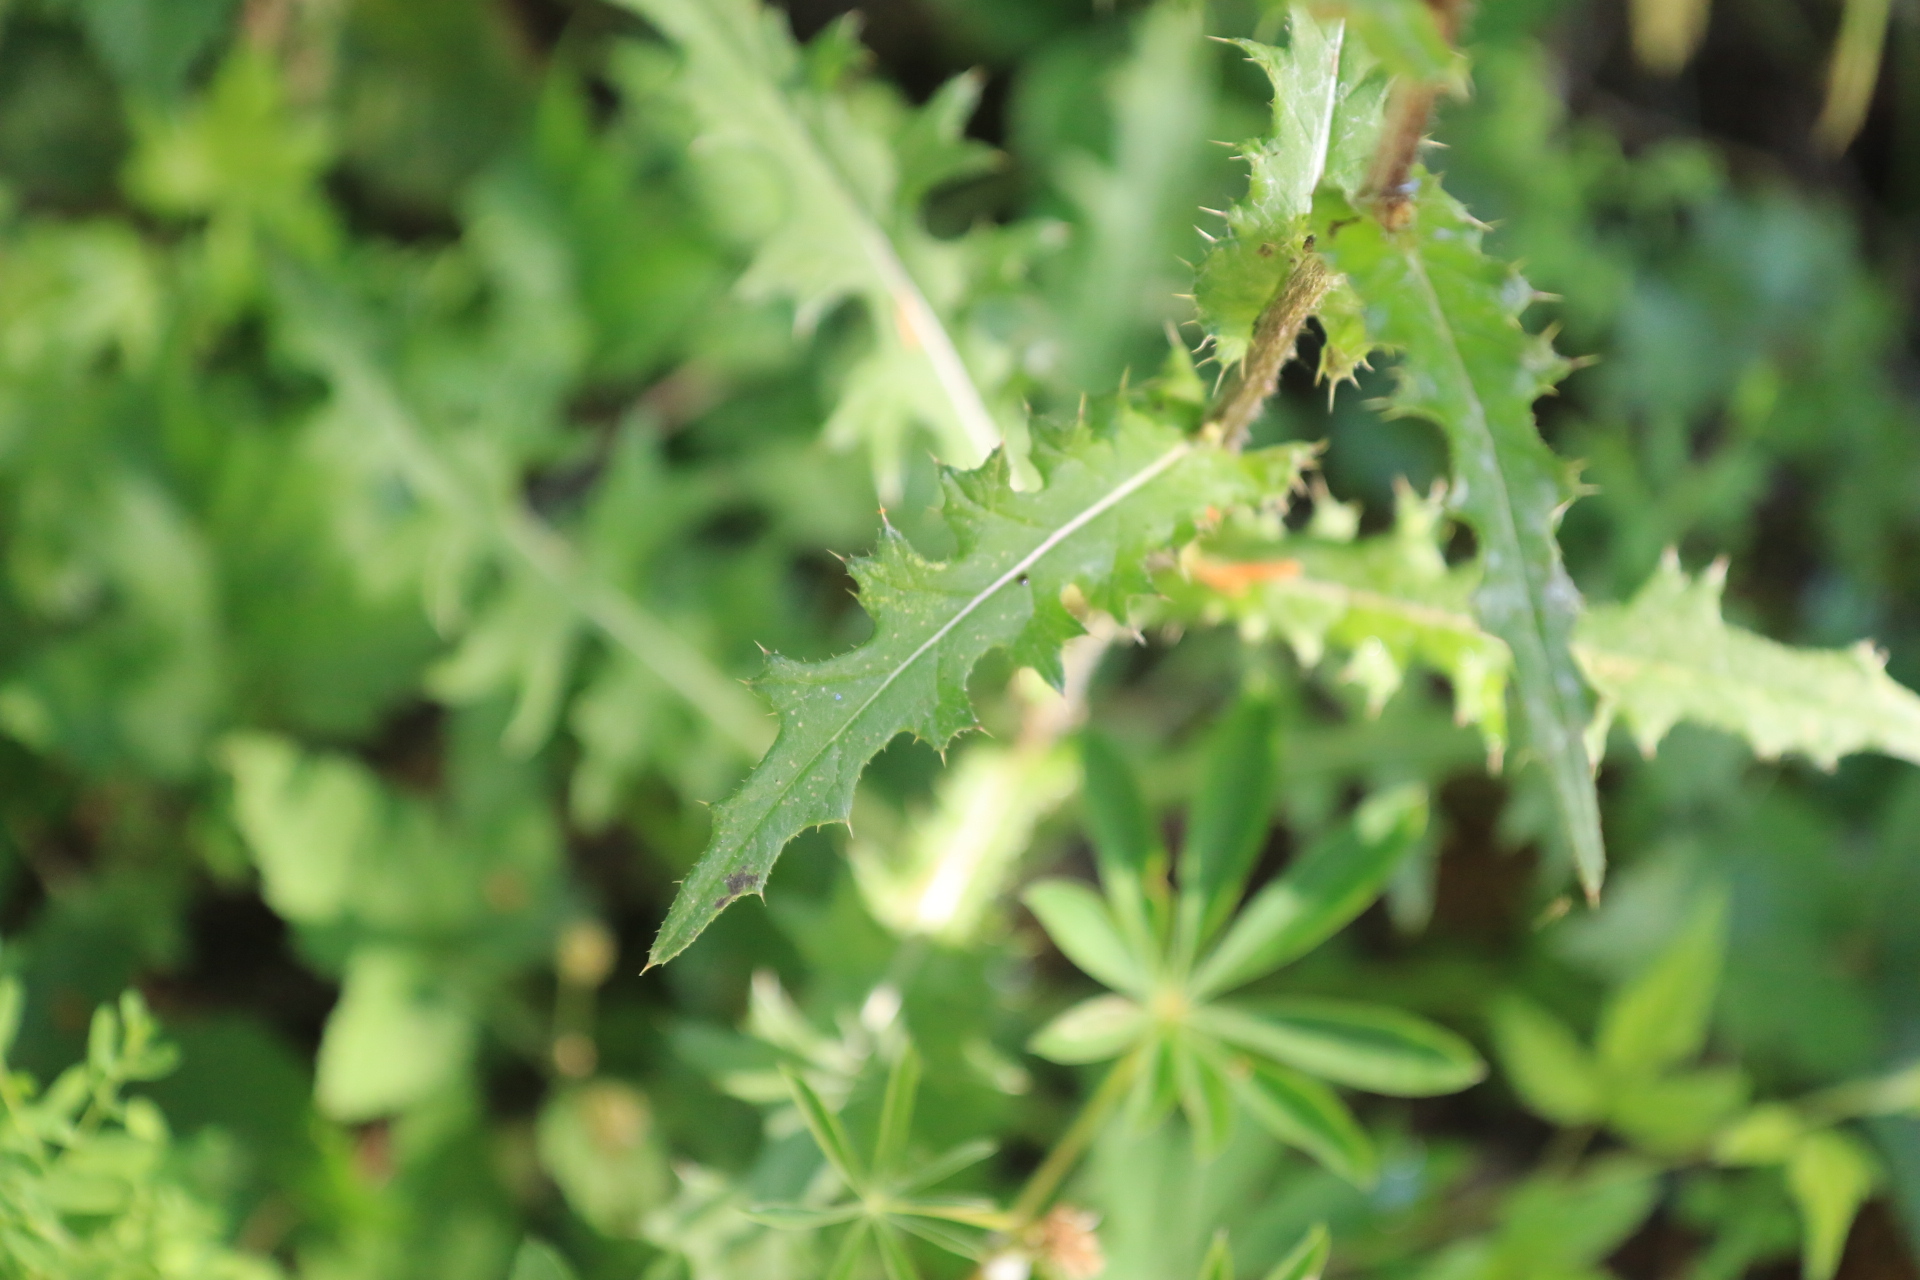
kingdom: Plantae
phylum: Tracheophyta
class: Magnoliopsida
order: Asterales
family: Asteraceae
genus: Cirsium
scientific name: Cirsium remotifolium
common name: Remote-leaf thistle
